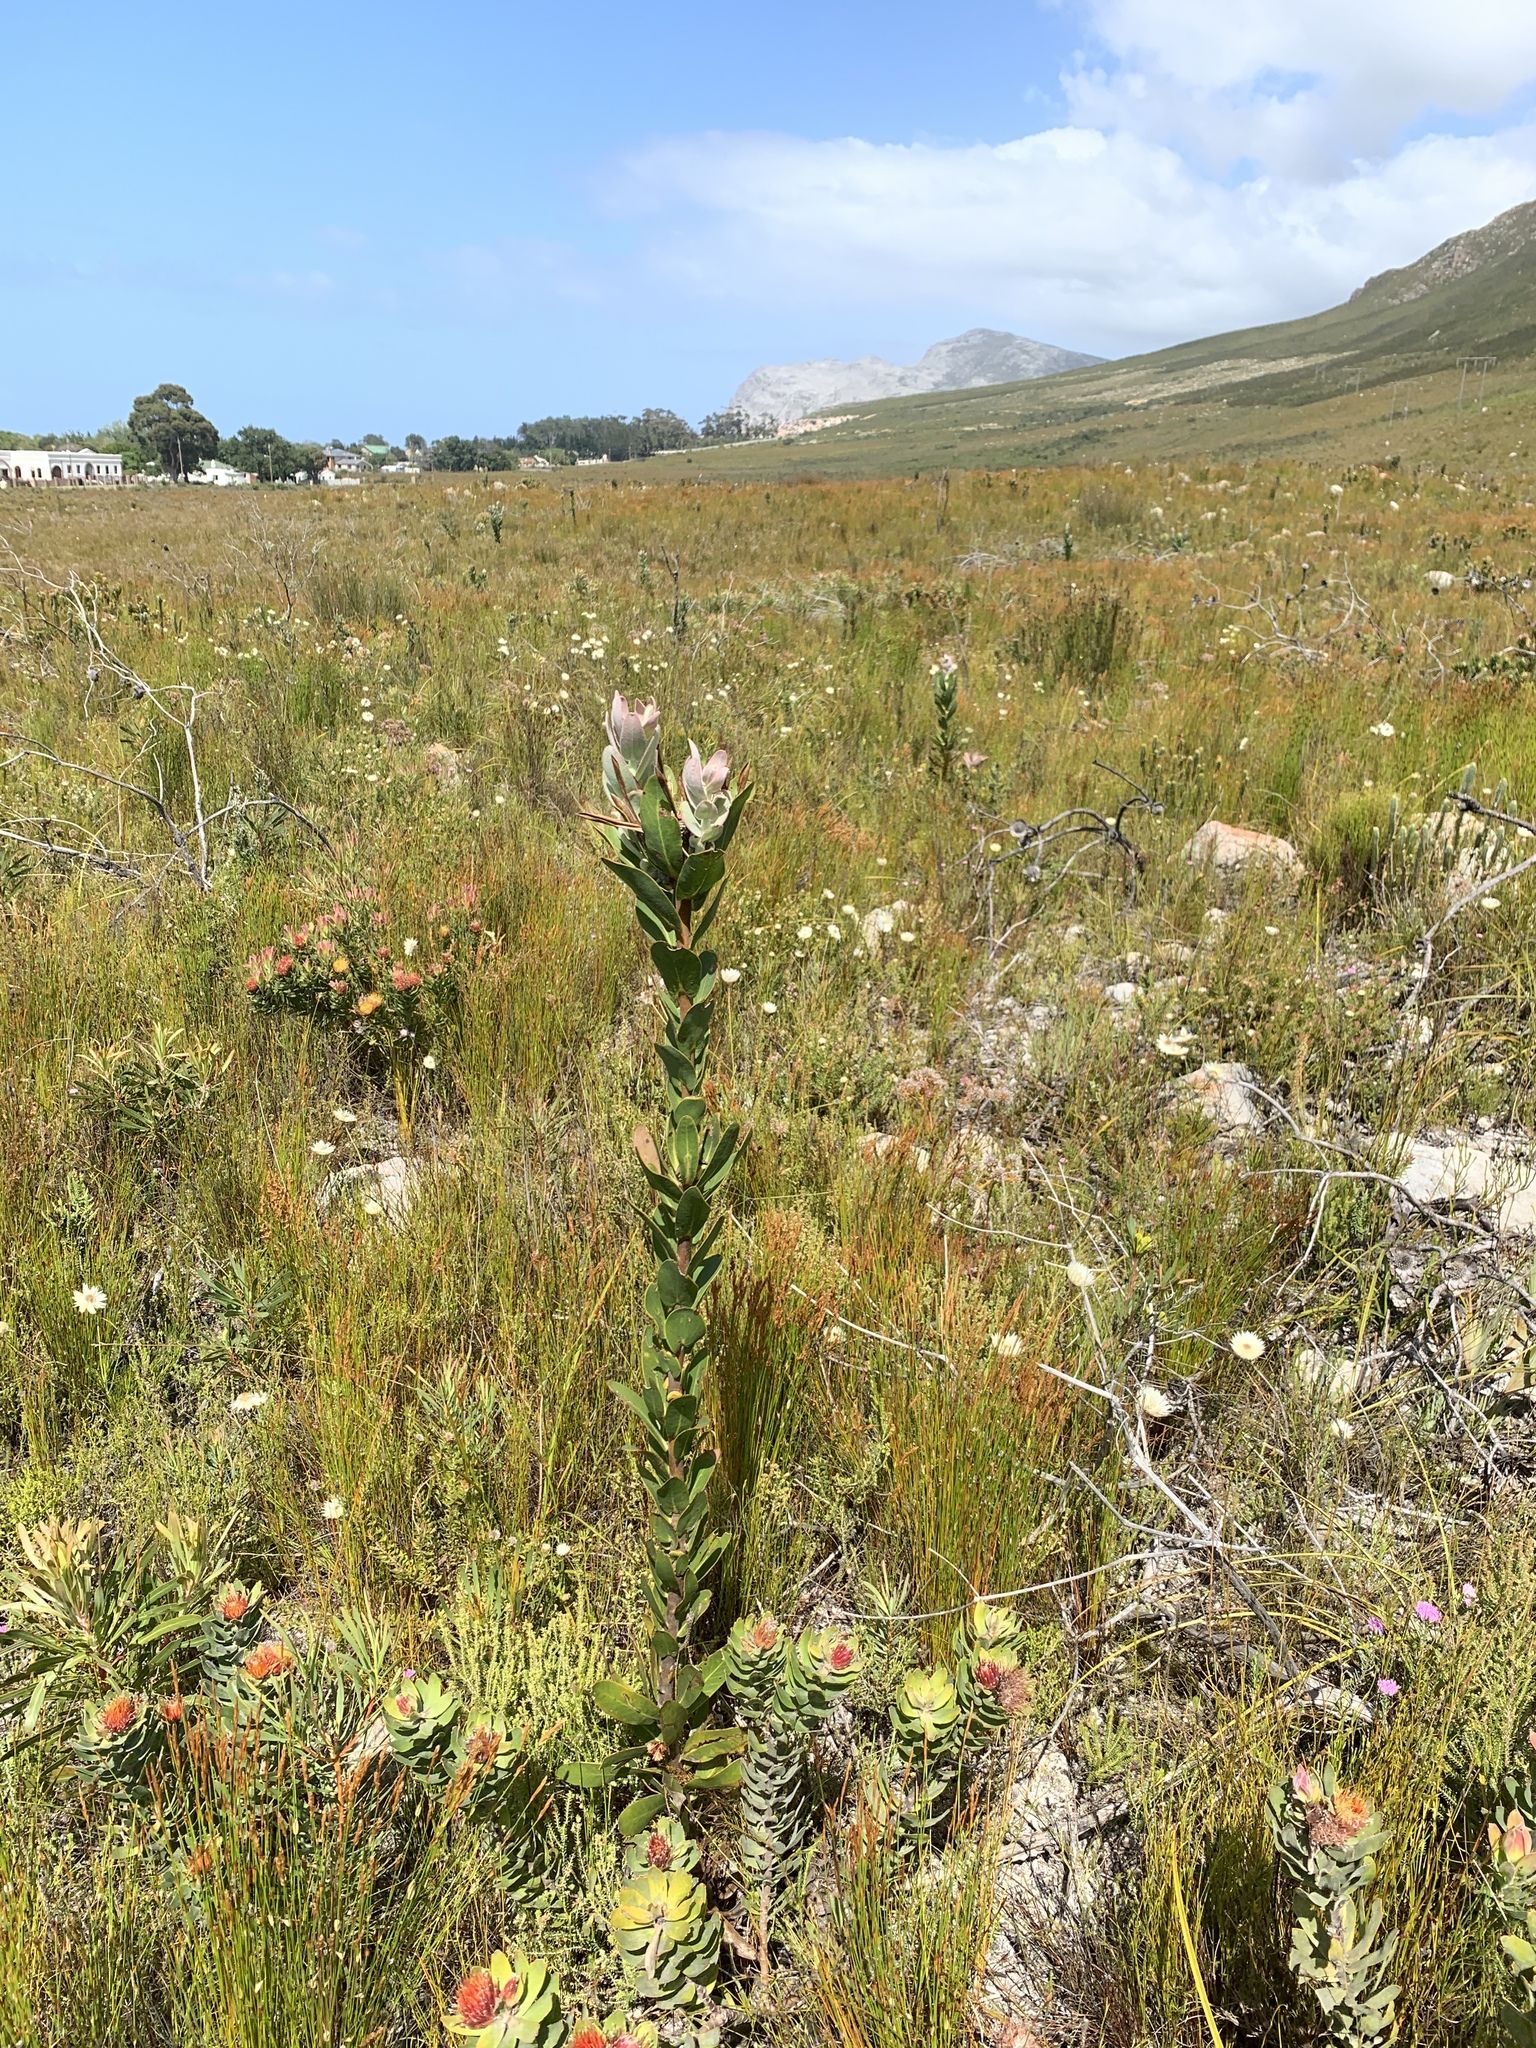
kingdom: Plantae
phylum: Tracheophyta
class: Magnoliopsida
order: Proteales
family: Proteaceae
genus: Protea
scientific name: Protea compacta
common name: Bot river protea
